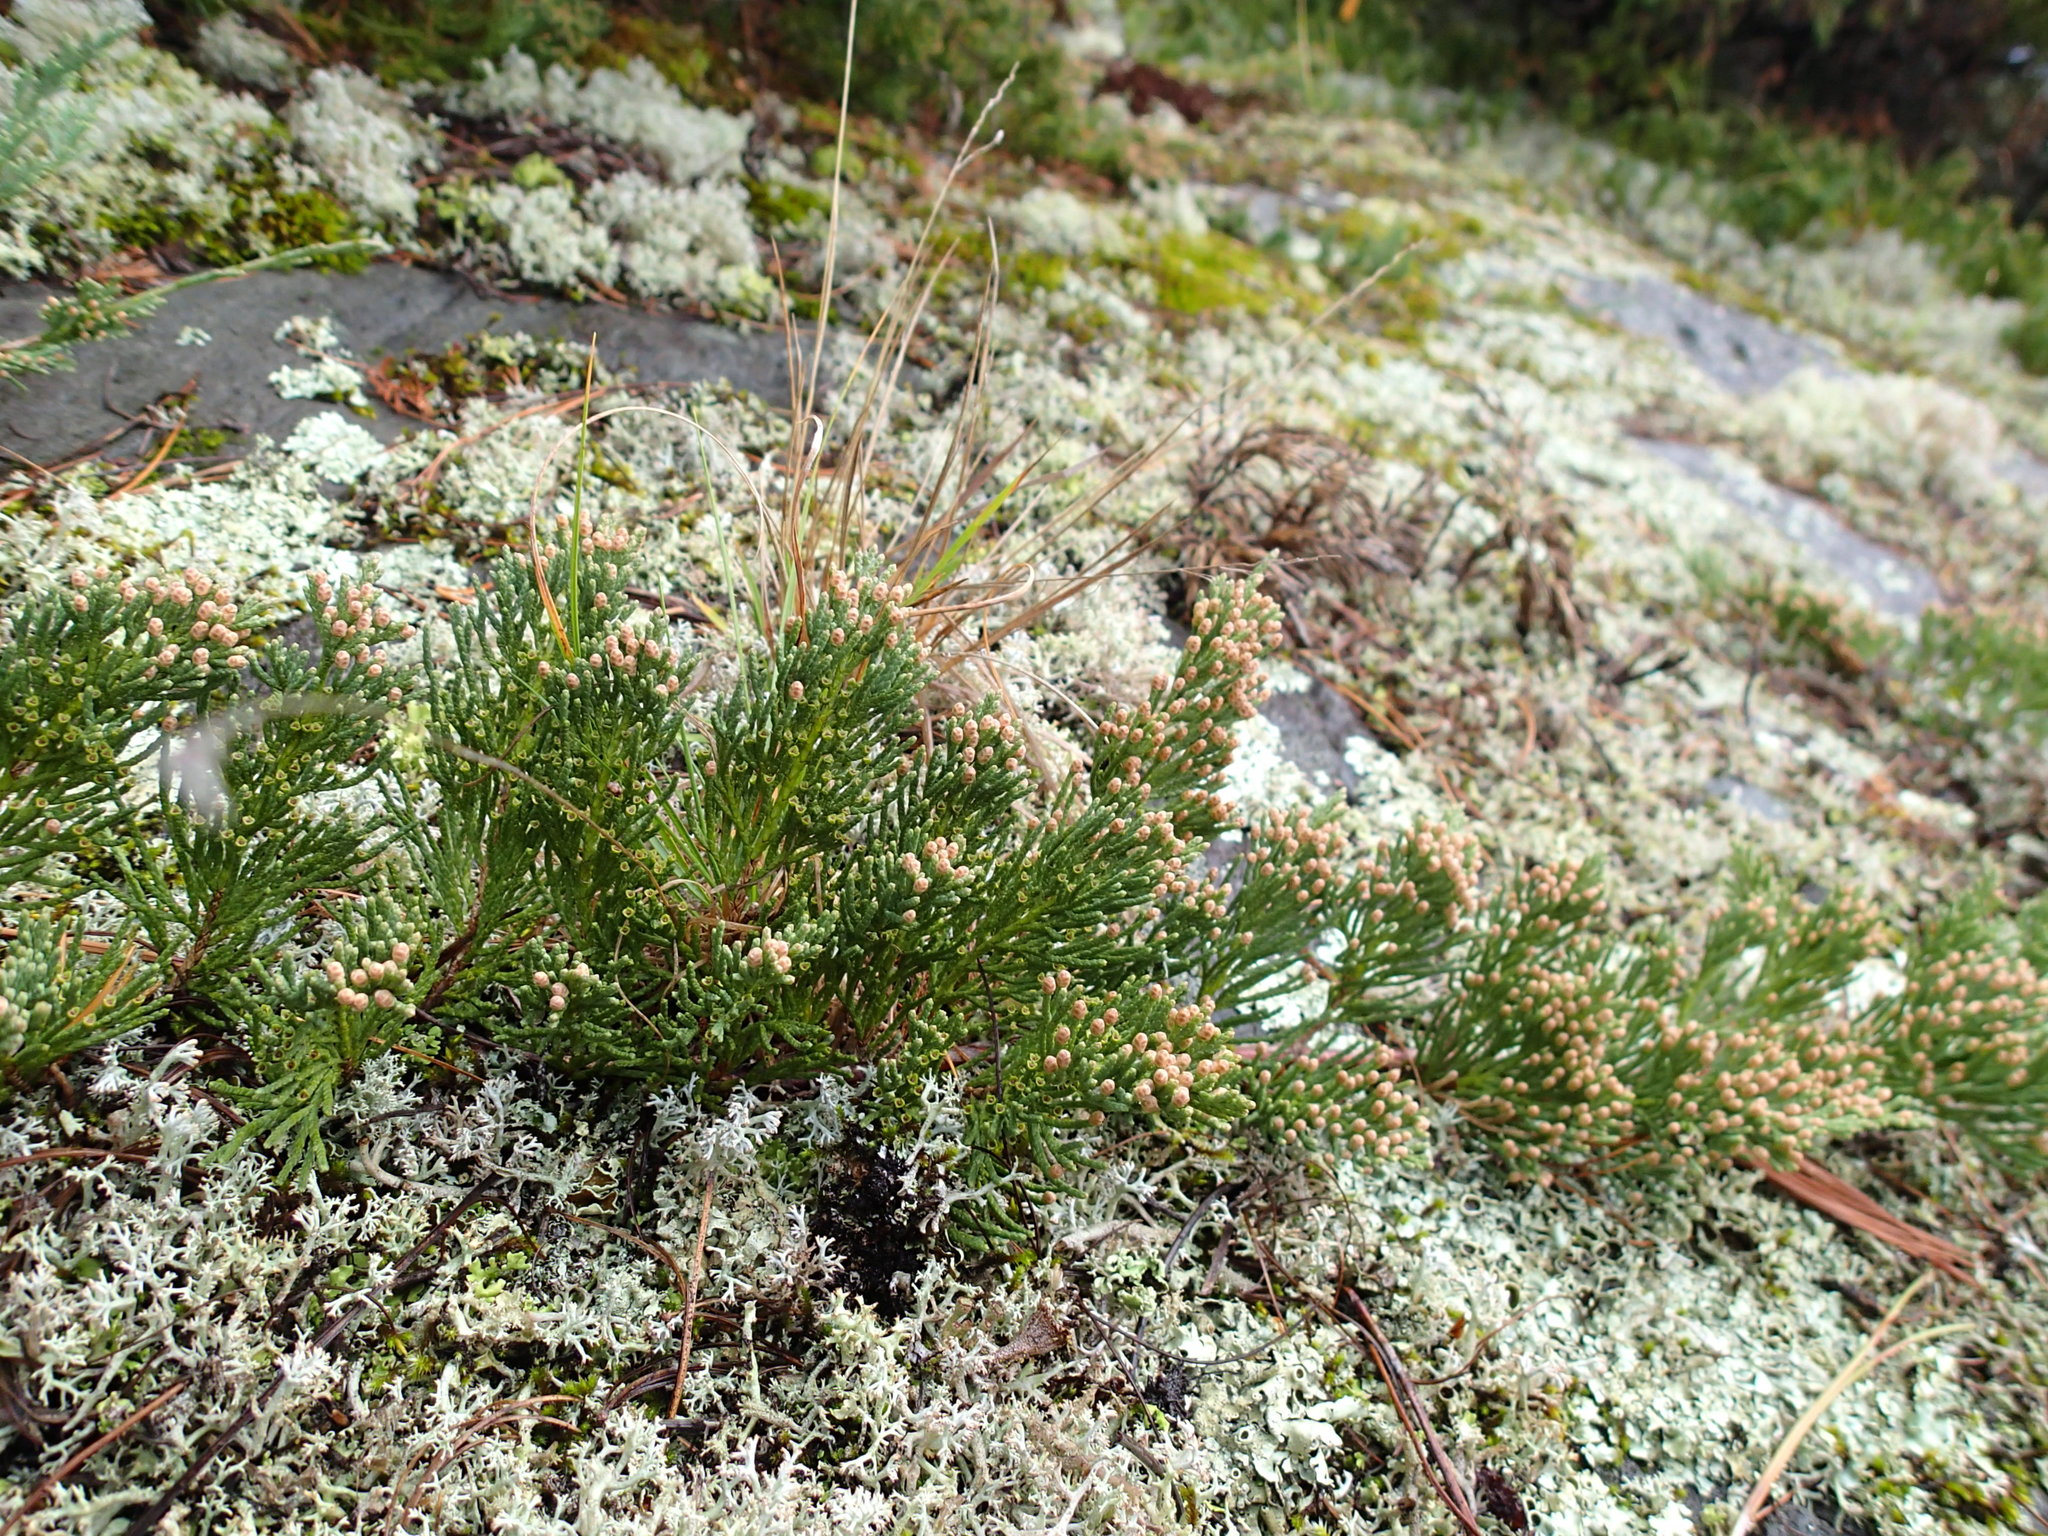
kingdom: Plantae
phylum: Tracheophyta
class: Pinopsida
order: Pinales
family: Cupressaceae
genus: Juniperus
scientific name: Juniperus horizontalis
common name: Creeping juniper
